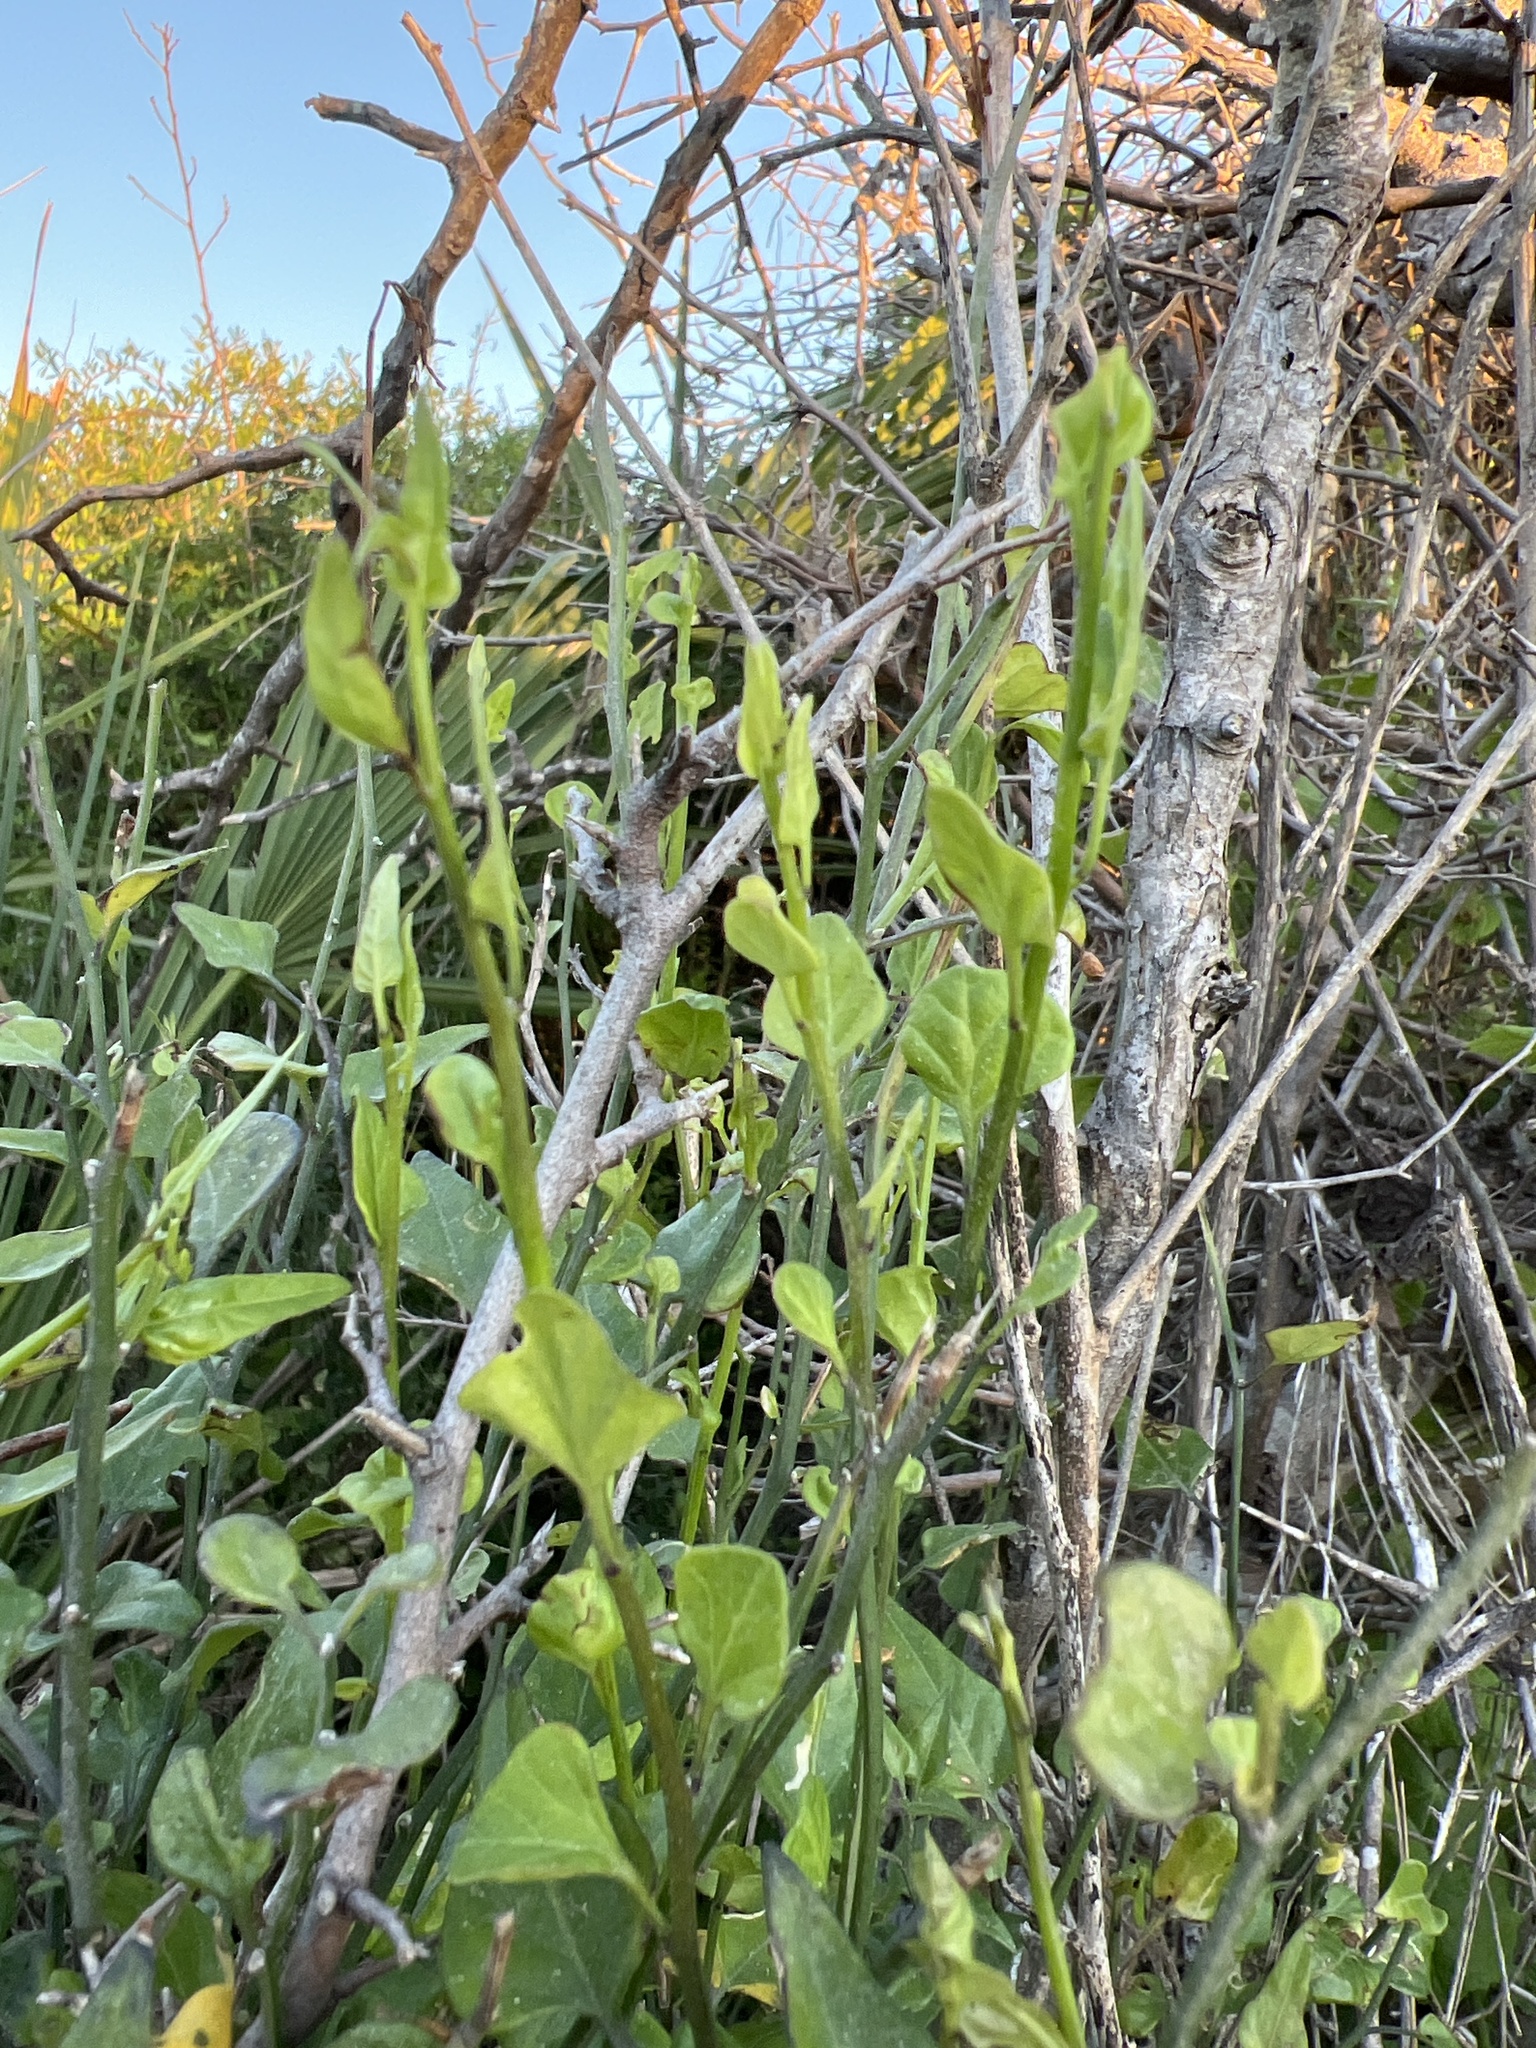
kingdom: Plantae
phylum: Tracheophyta
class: Magnoliopsida
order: Solanales
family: Solanaceae
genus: Solanum
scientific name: Solanum triquetrum
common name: Texas nightshade
